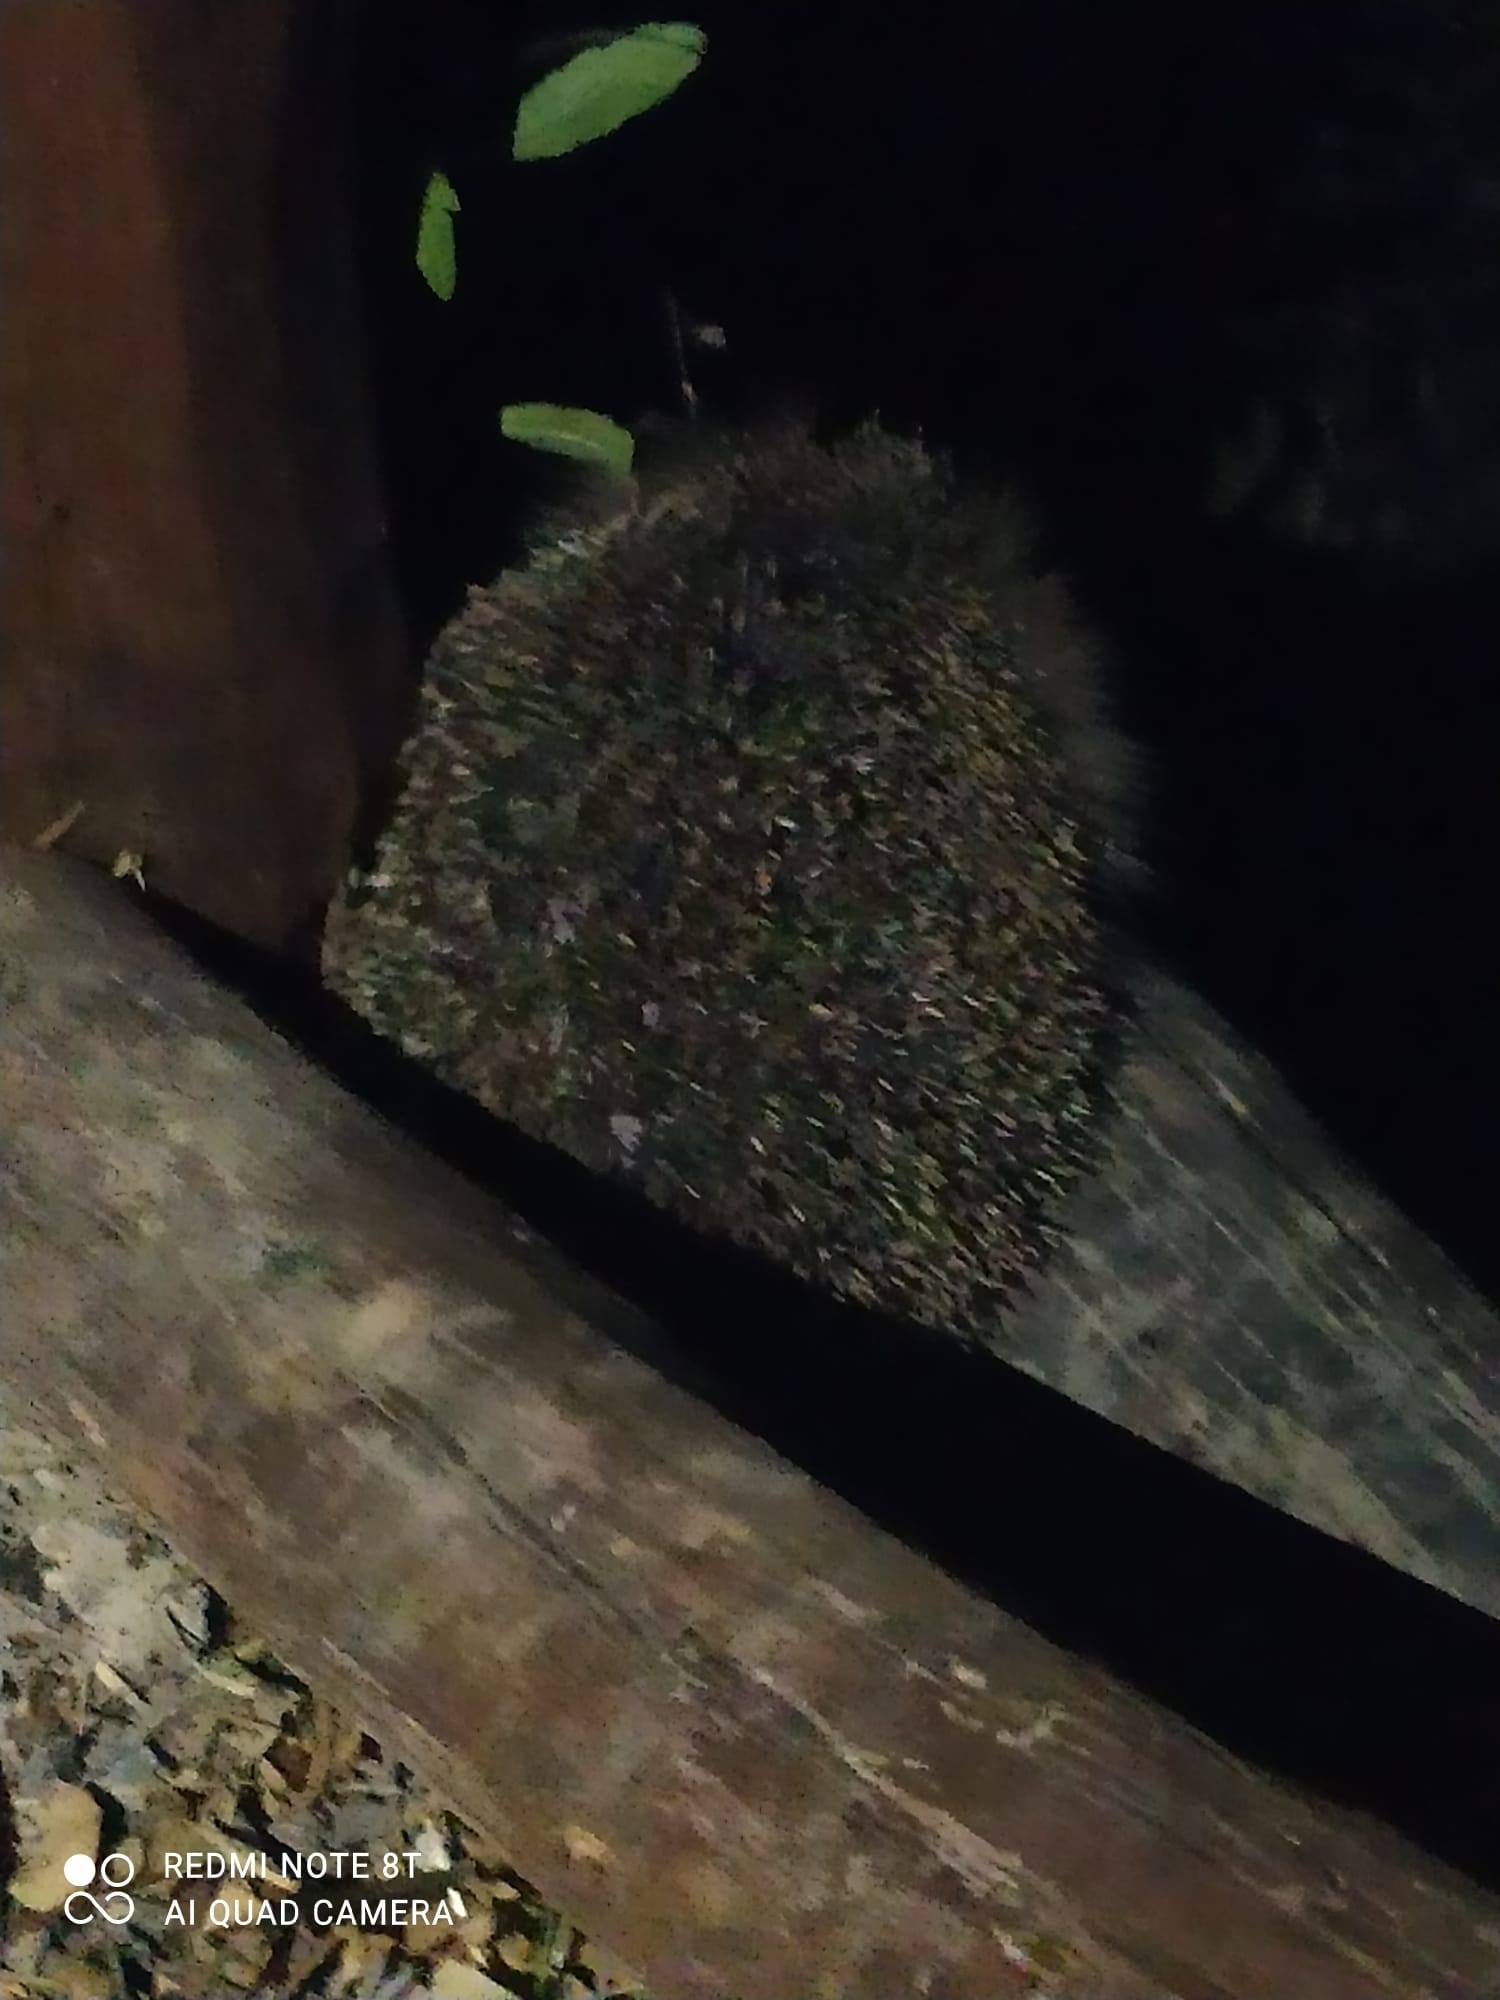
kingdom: Animalia
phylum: Chordata
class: Mammalia
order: Erinaceomorpha
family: Erinaceidae
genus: Erinaceus
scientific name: Erinaceus europaeus
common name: West european hedgehog
